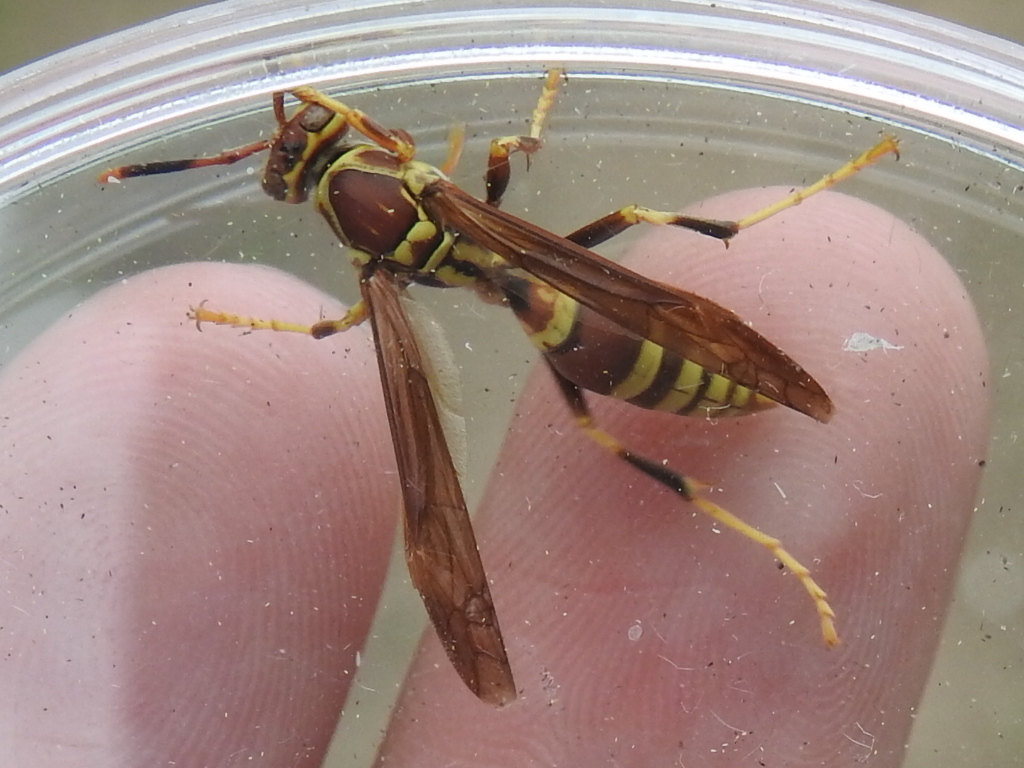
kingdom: Animalia
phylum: Arthropoda
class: Insecta
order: Hymenoptera
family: Eumenidae
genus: Polistes
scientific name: Polistes exclamans
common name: Paper wasp
